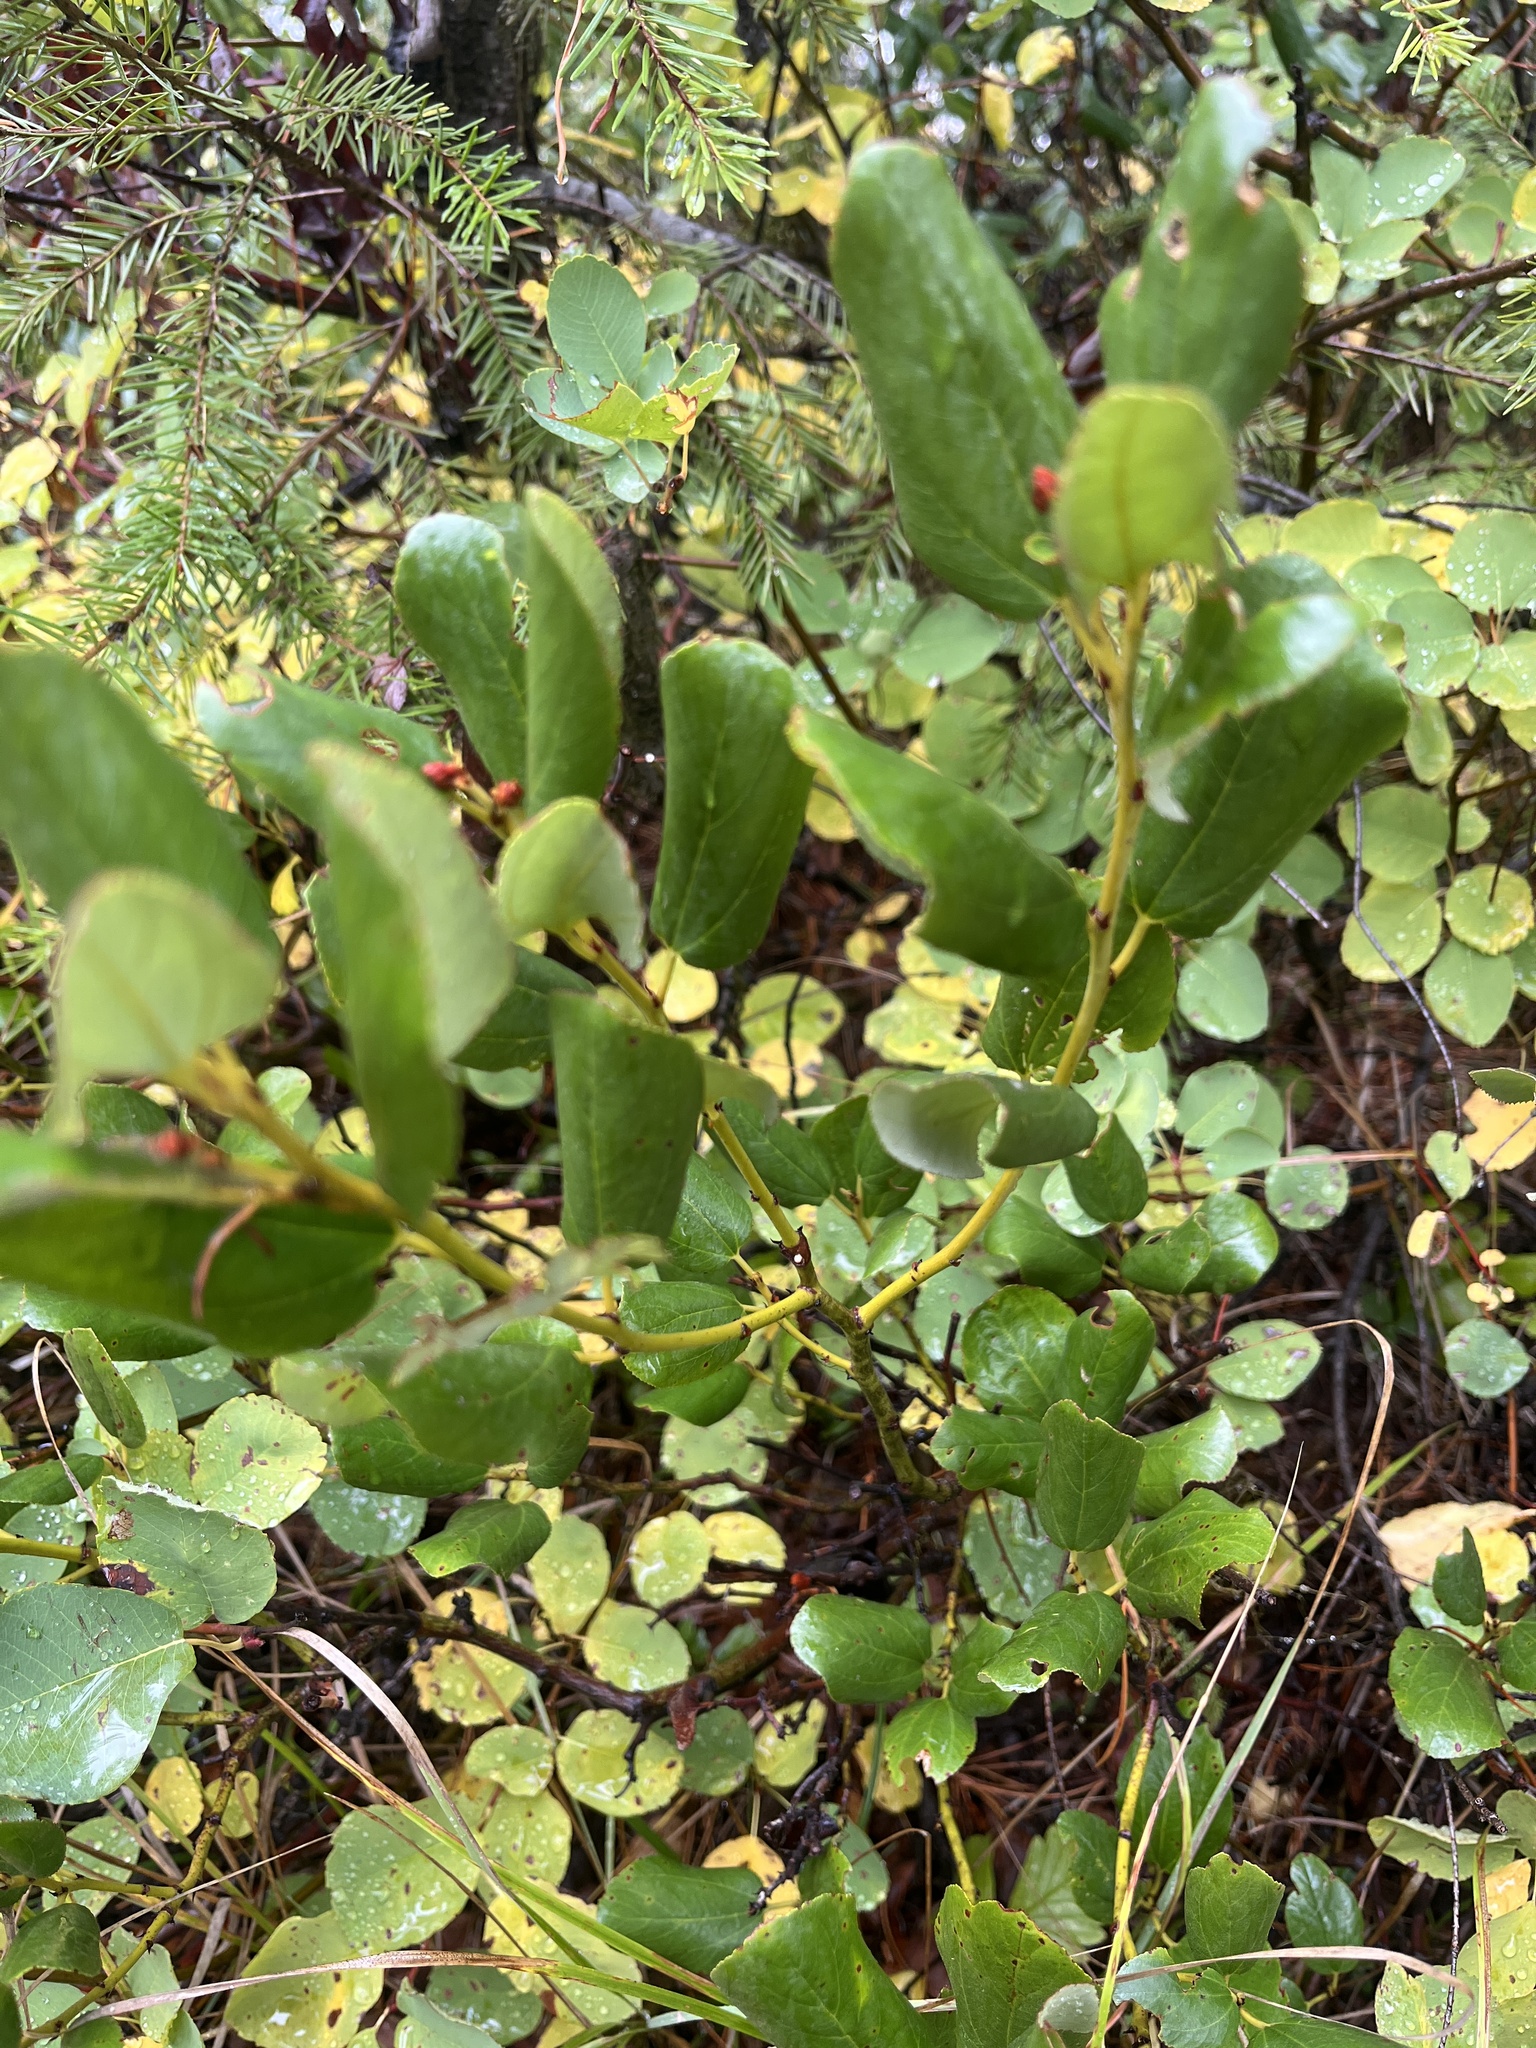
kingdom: Plantae
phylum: Tracheophyta
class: Magnoliopsida
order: Rosales
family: Rhamnaceae
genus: Ceanothus
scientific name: Ceanothus velutinus
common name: Snowbrush
